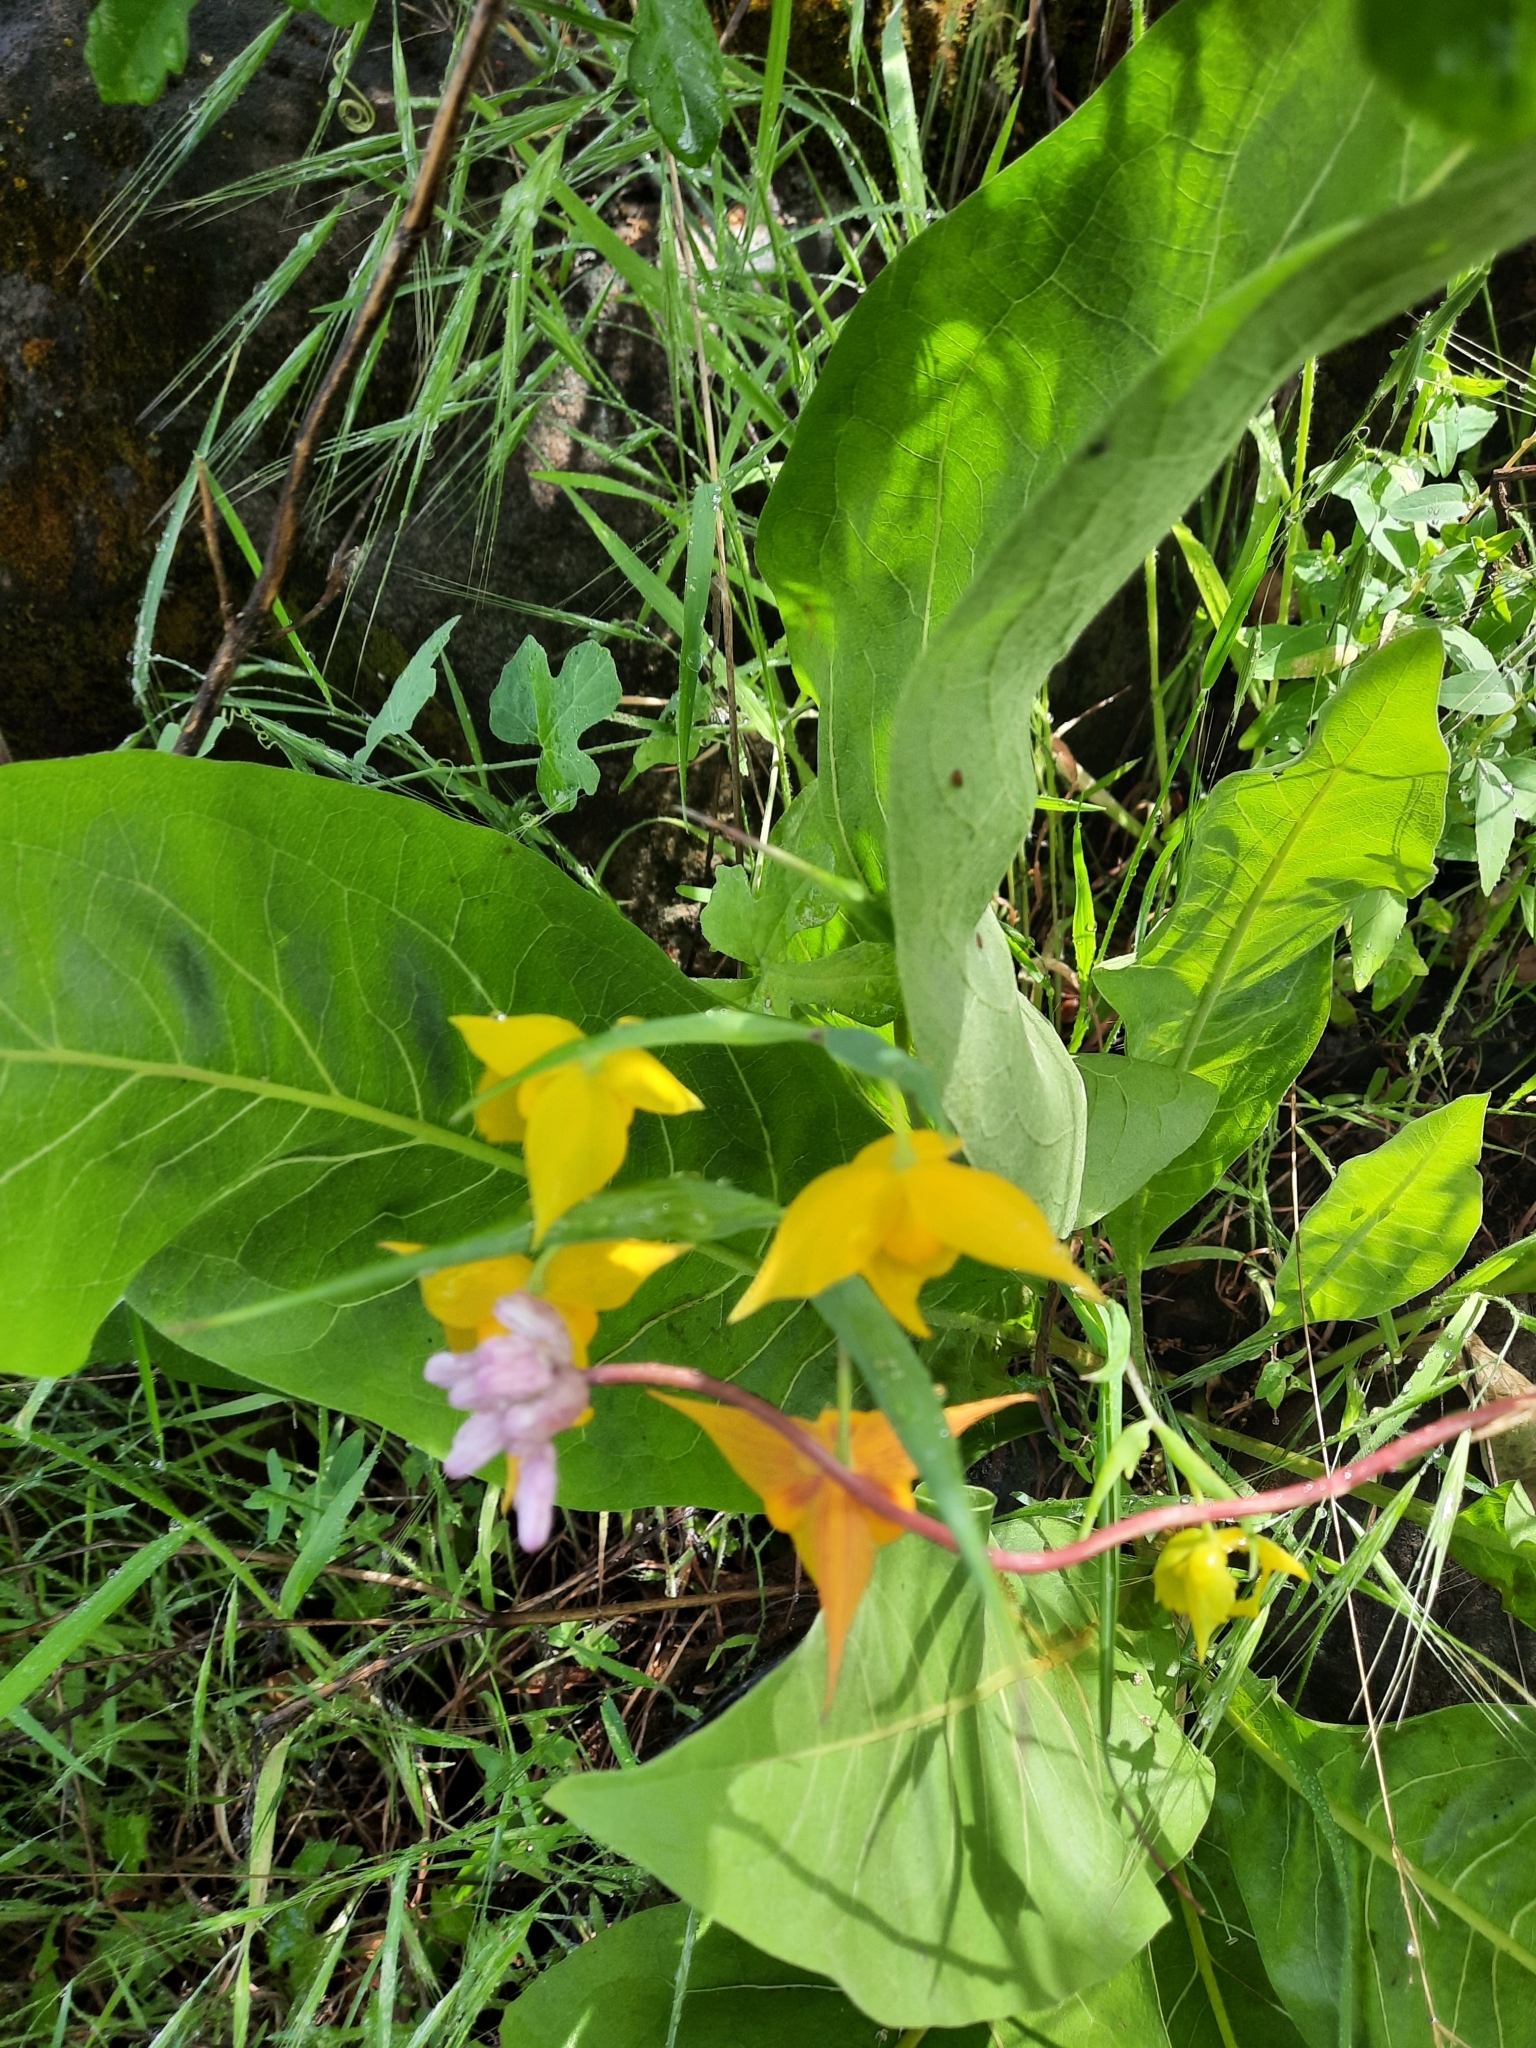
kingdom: Plantae
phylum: Tracheophyta
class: Liliopsida
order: Liliales
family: Liliaceae
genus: Calochortus
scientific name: Calochortus amabilis
